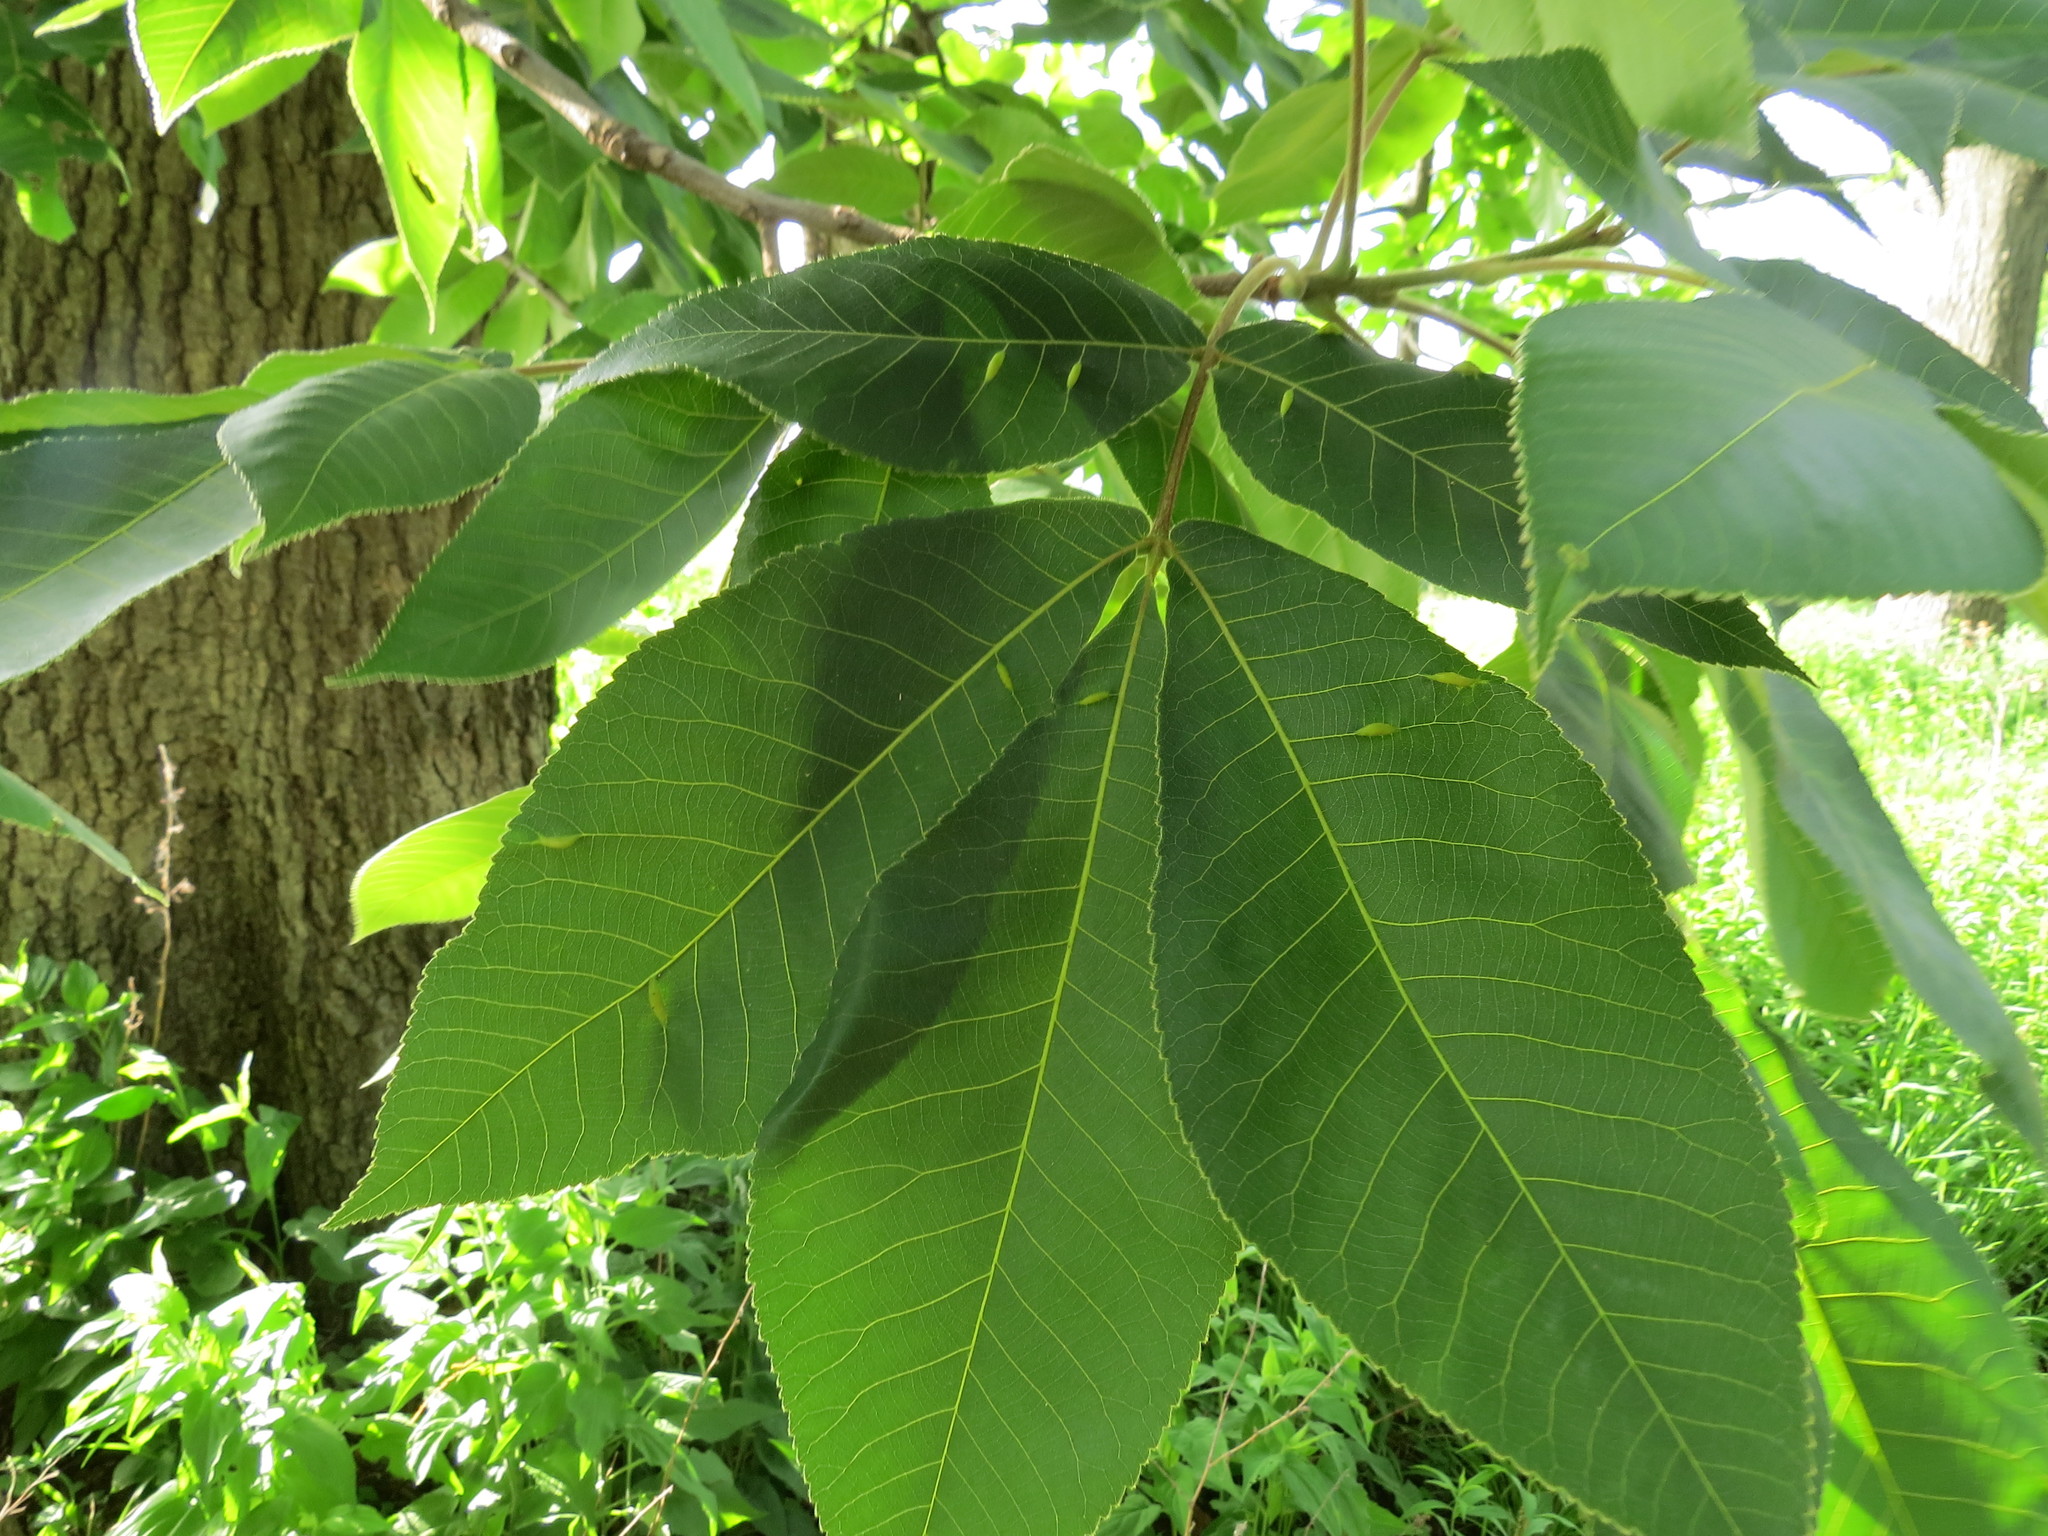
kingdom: Plantae
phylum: Tracheophyta
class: Magnoliopsida
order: Fagales
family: Juglandaceae
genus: Carya
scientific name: Carya ovata
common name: Shagbark hickory
